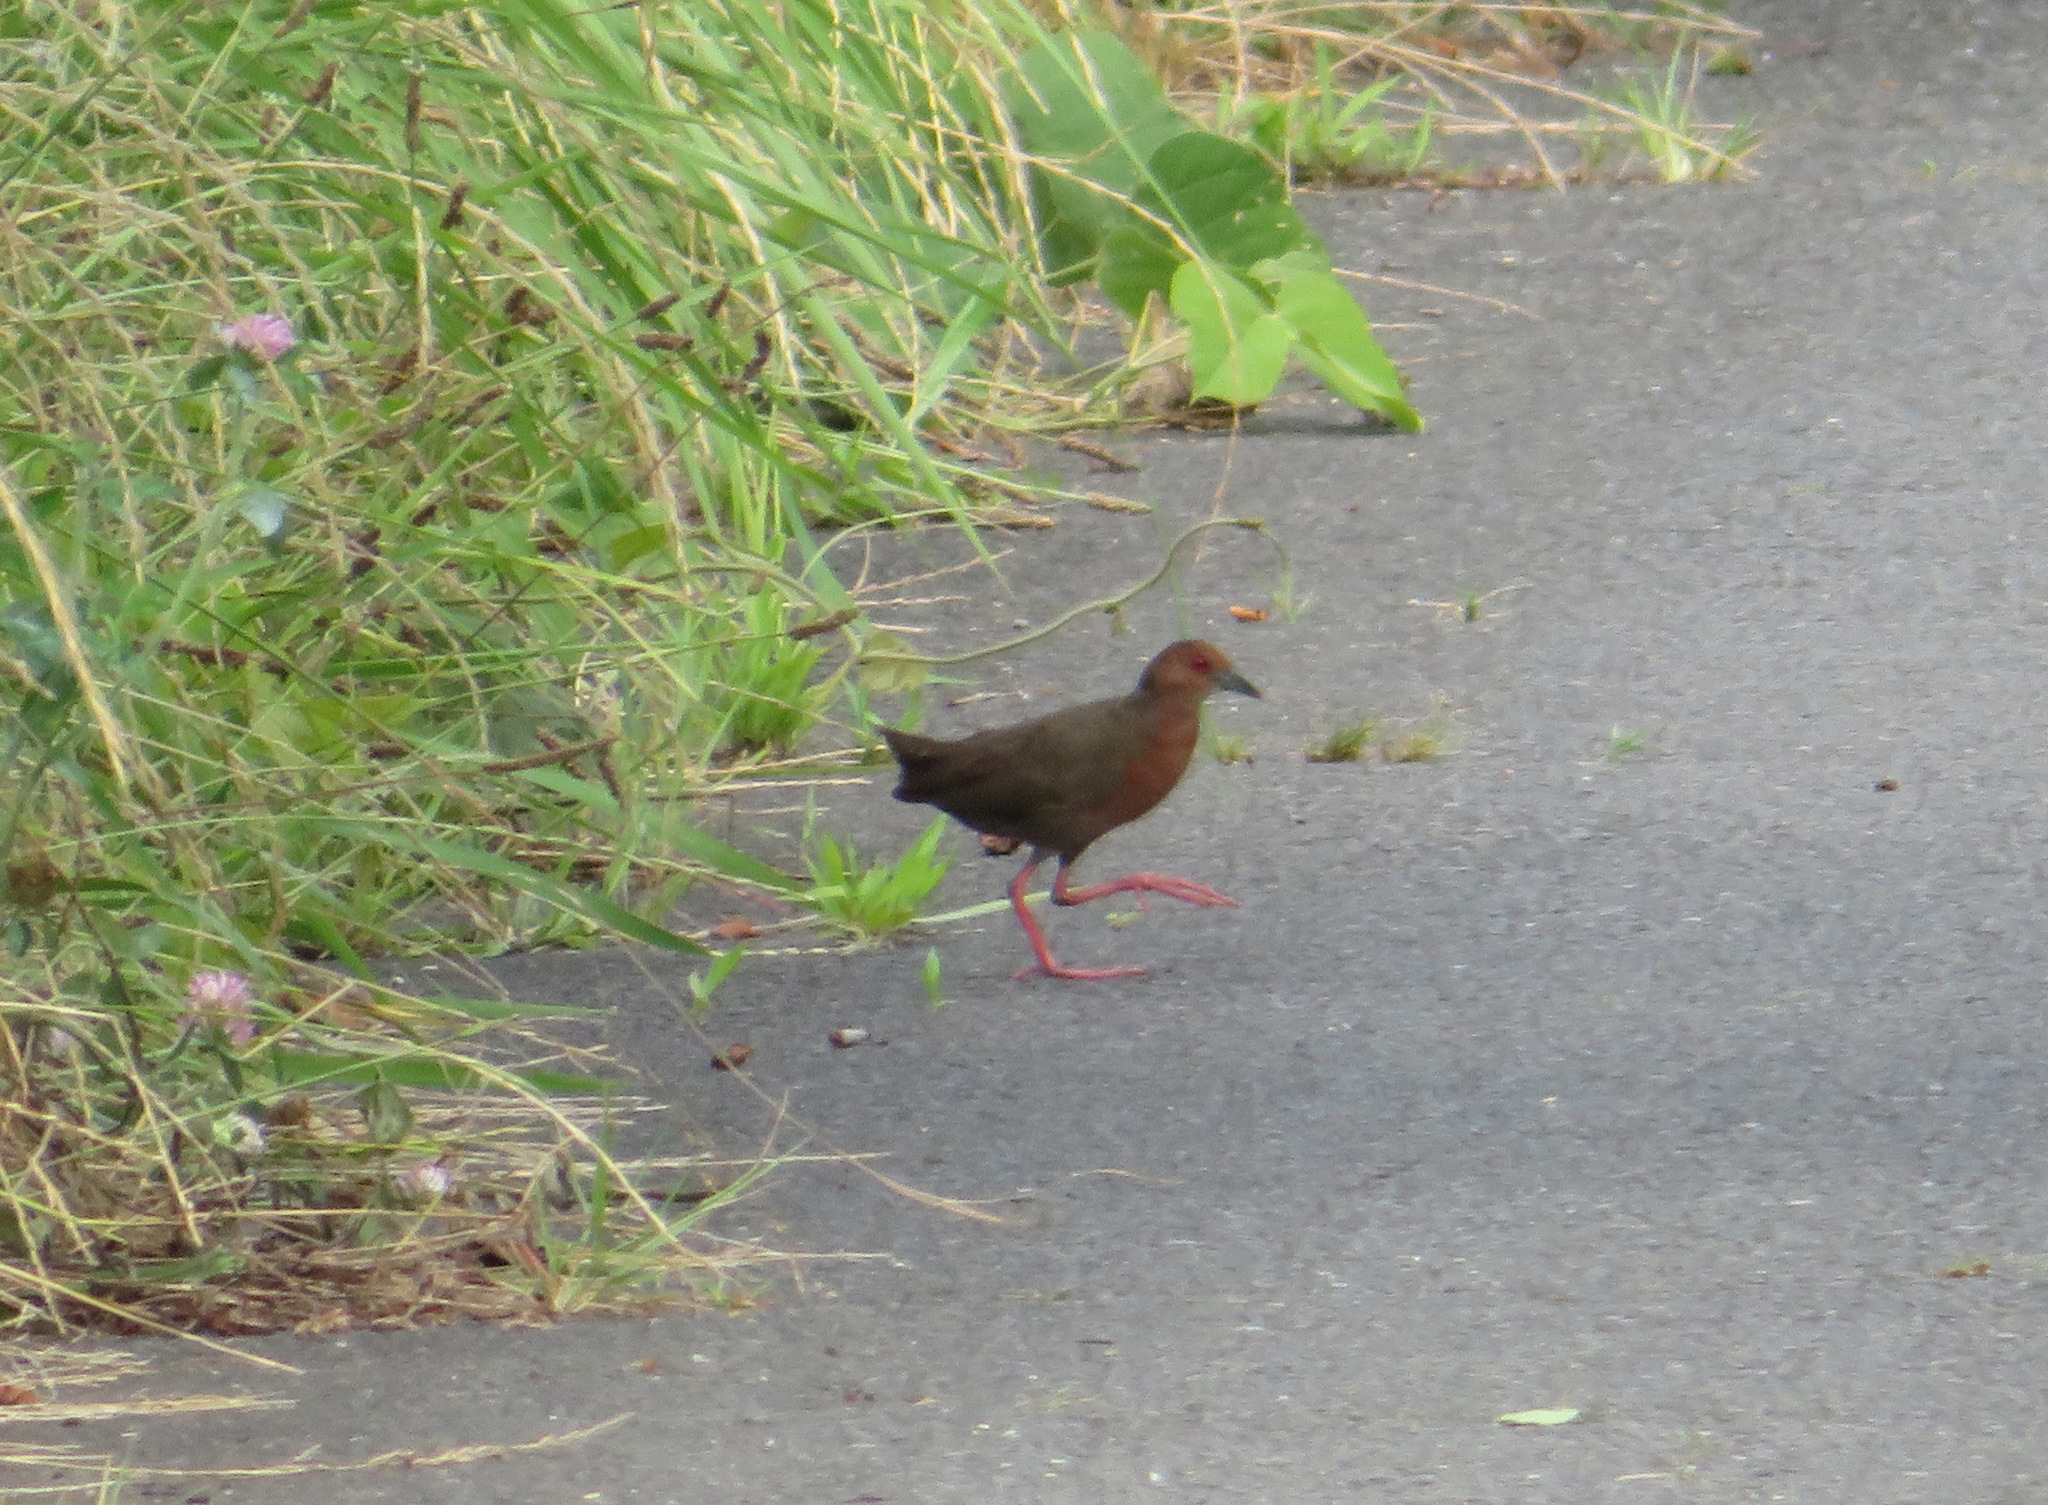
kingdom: Animalia
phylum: Chordata
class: Aves
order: Gruiformes
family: Rallidae
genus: Porzana
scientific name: Porzana fusca
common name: Ruddy-breasted crake
